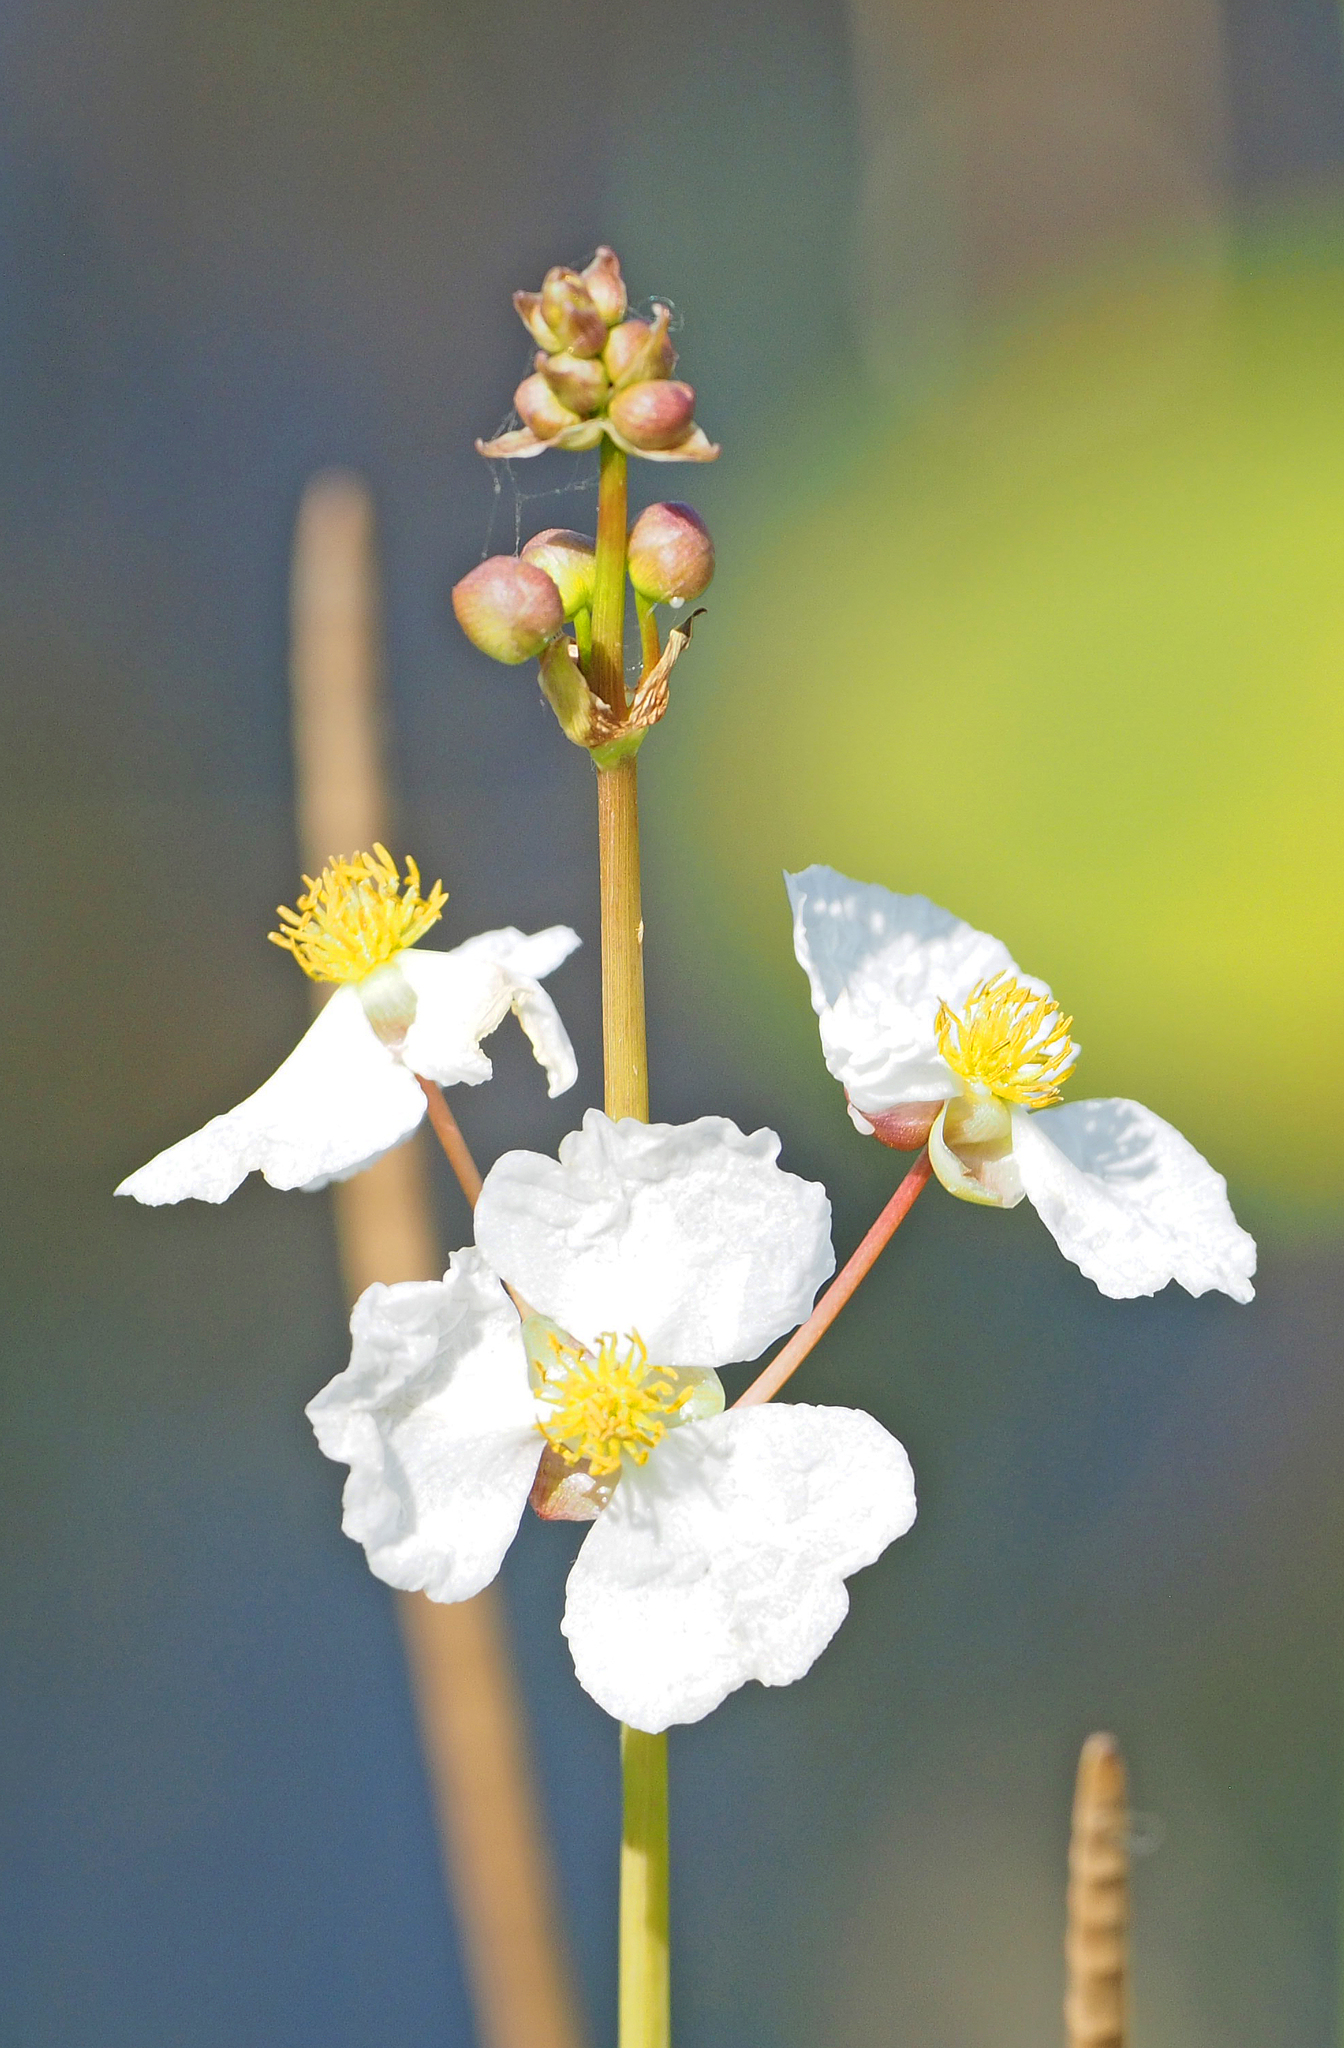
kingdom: Plantae
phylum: Tracheophyta
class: Liliopsida
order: Alismatales
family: Alismataceae
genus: Sagittaria
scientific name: Sagittaria lancifolia
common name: Lance-leaf arrowhead
